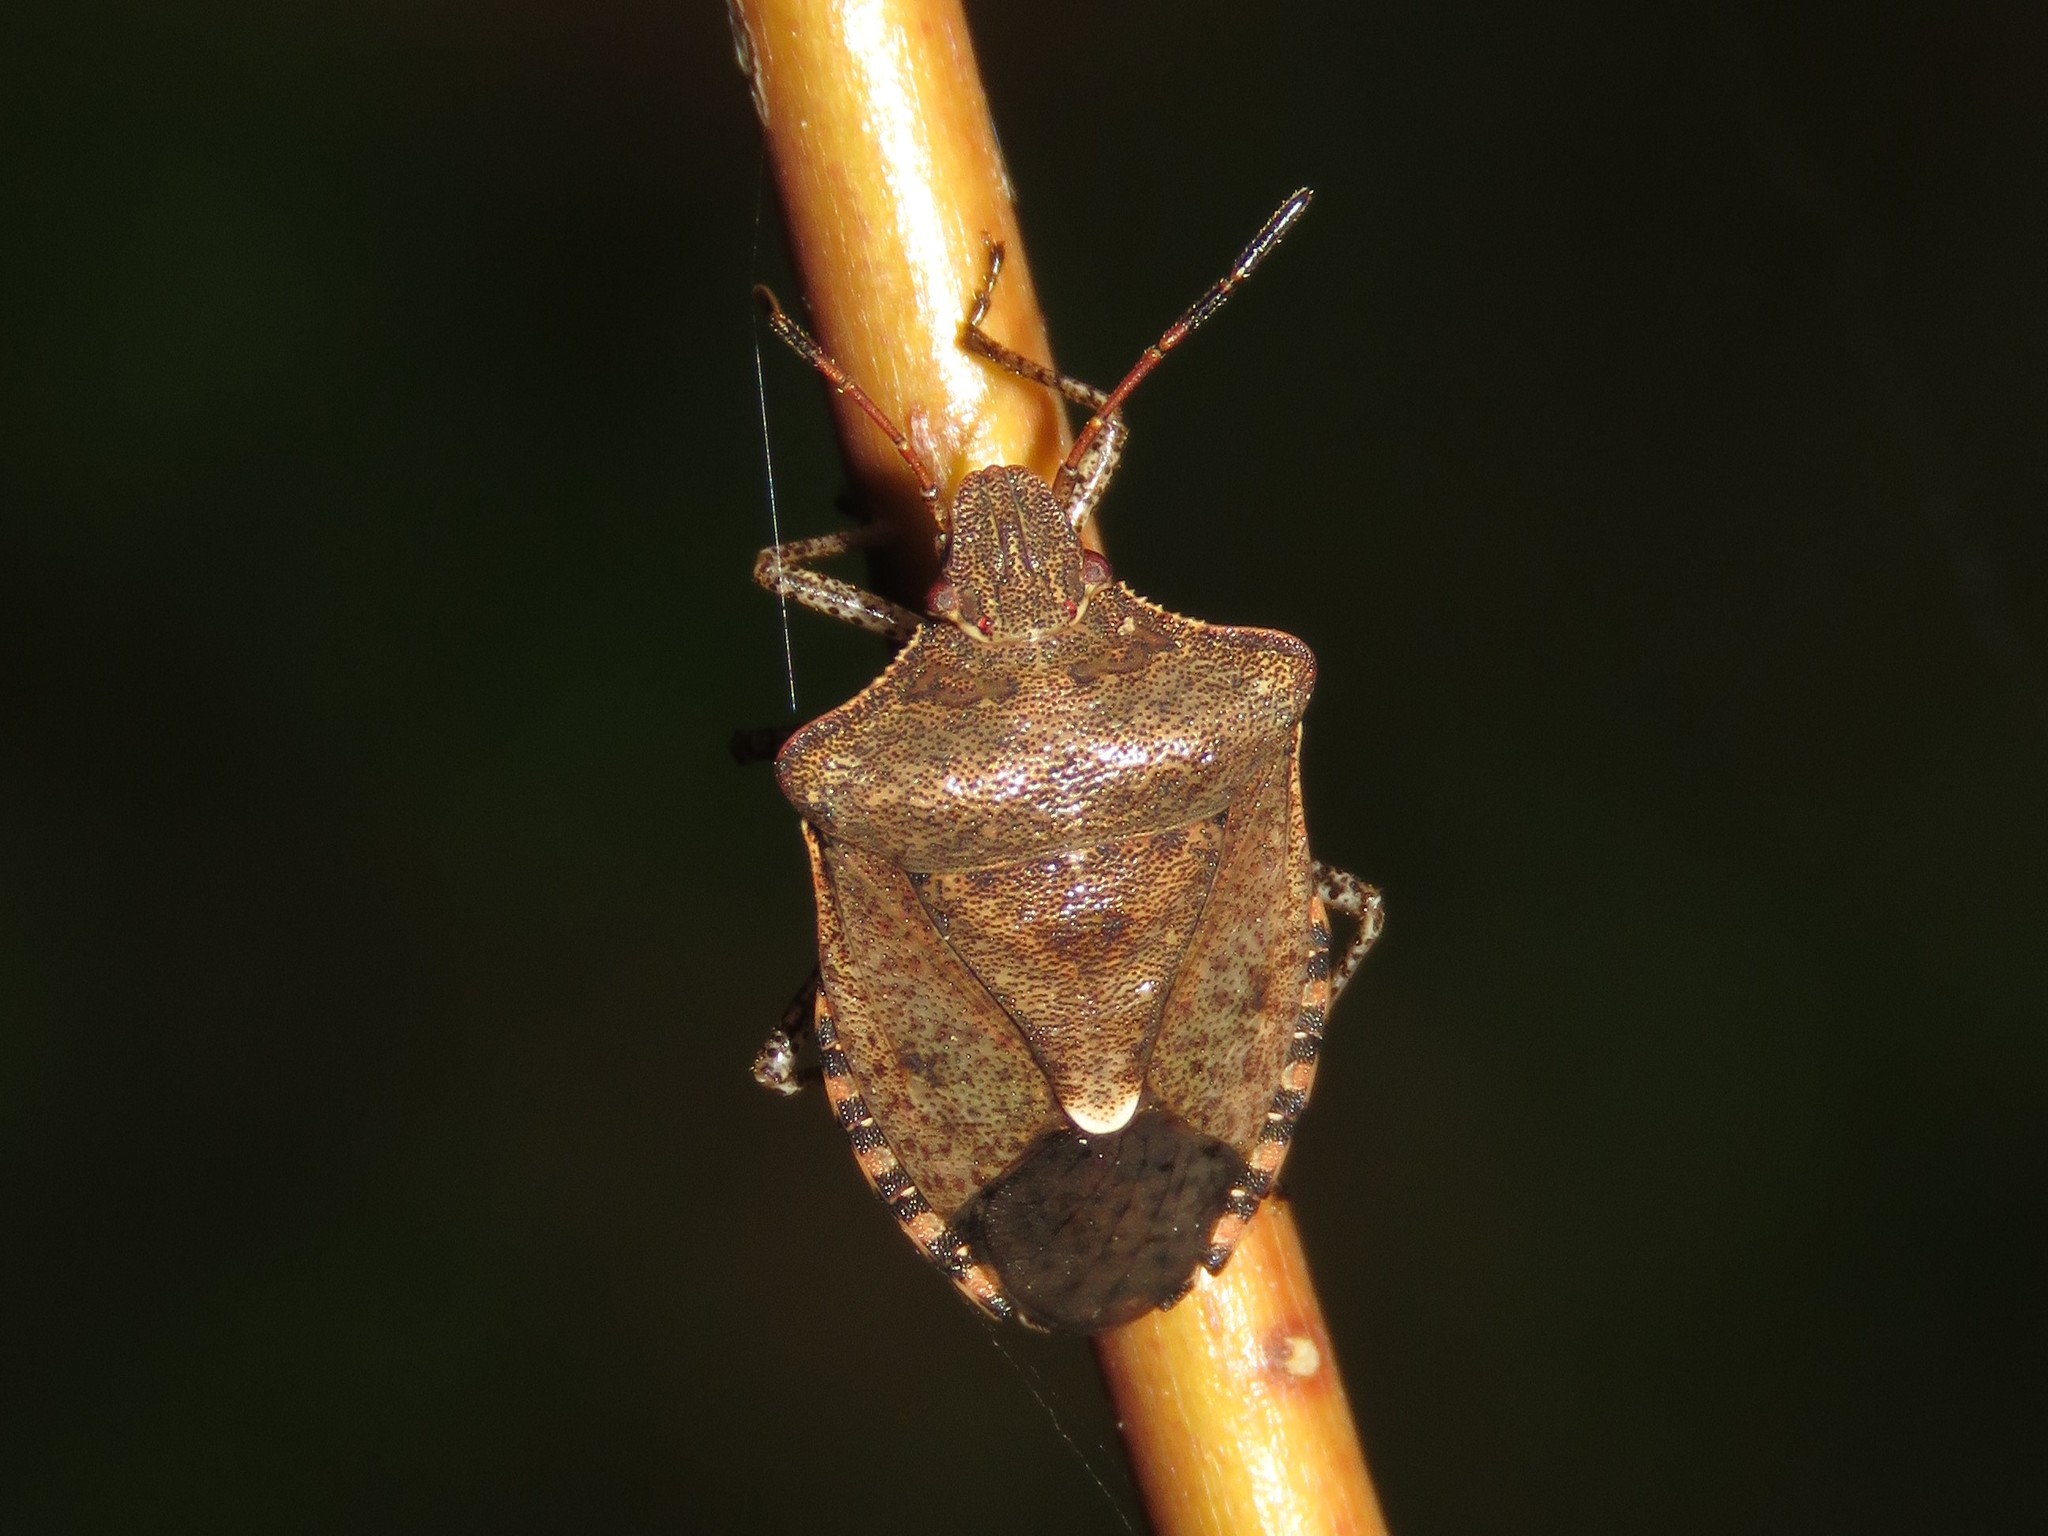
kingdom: Animalia
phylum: Arthropoda
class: Insecta
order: Hemiptera
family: Pentatomidae
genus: Euschistus
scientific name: Euschistus tristigmus
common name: Dusky stink bug
